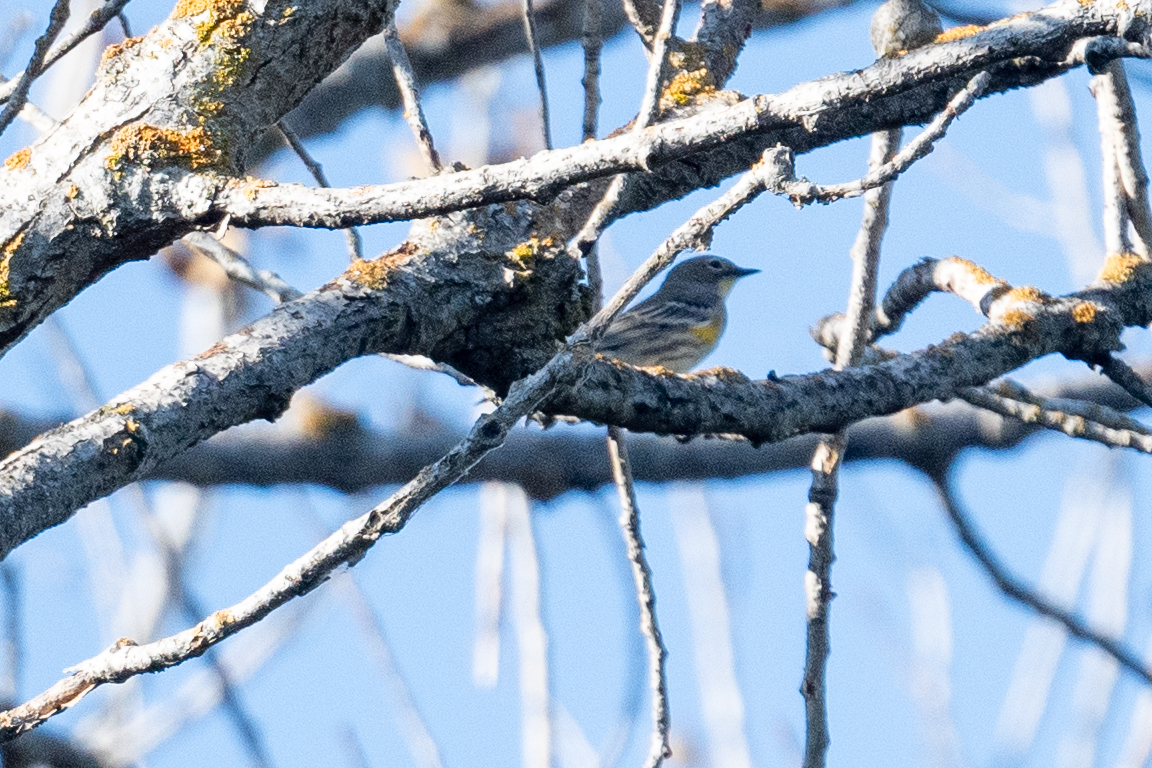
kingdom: Animalia
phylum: Chordata
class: Aves
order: Passeriformes
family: Parulidae
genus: Setophaga
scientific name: Setophaga coronata
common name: Myrtle warbler
